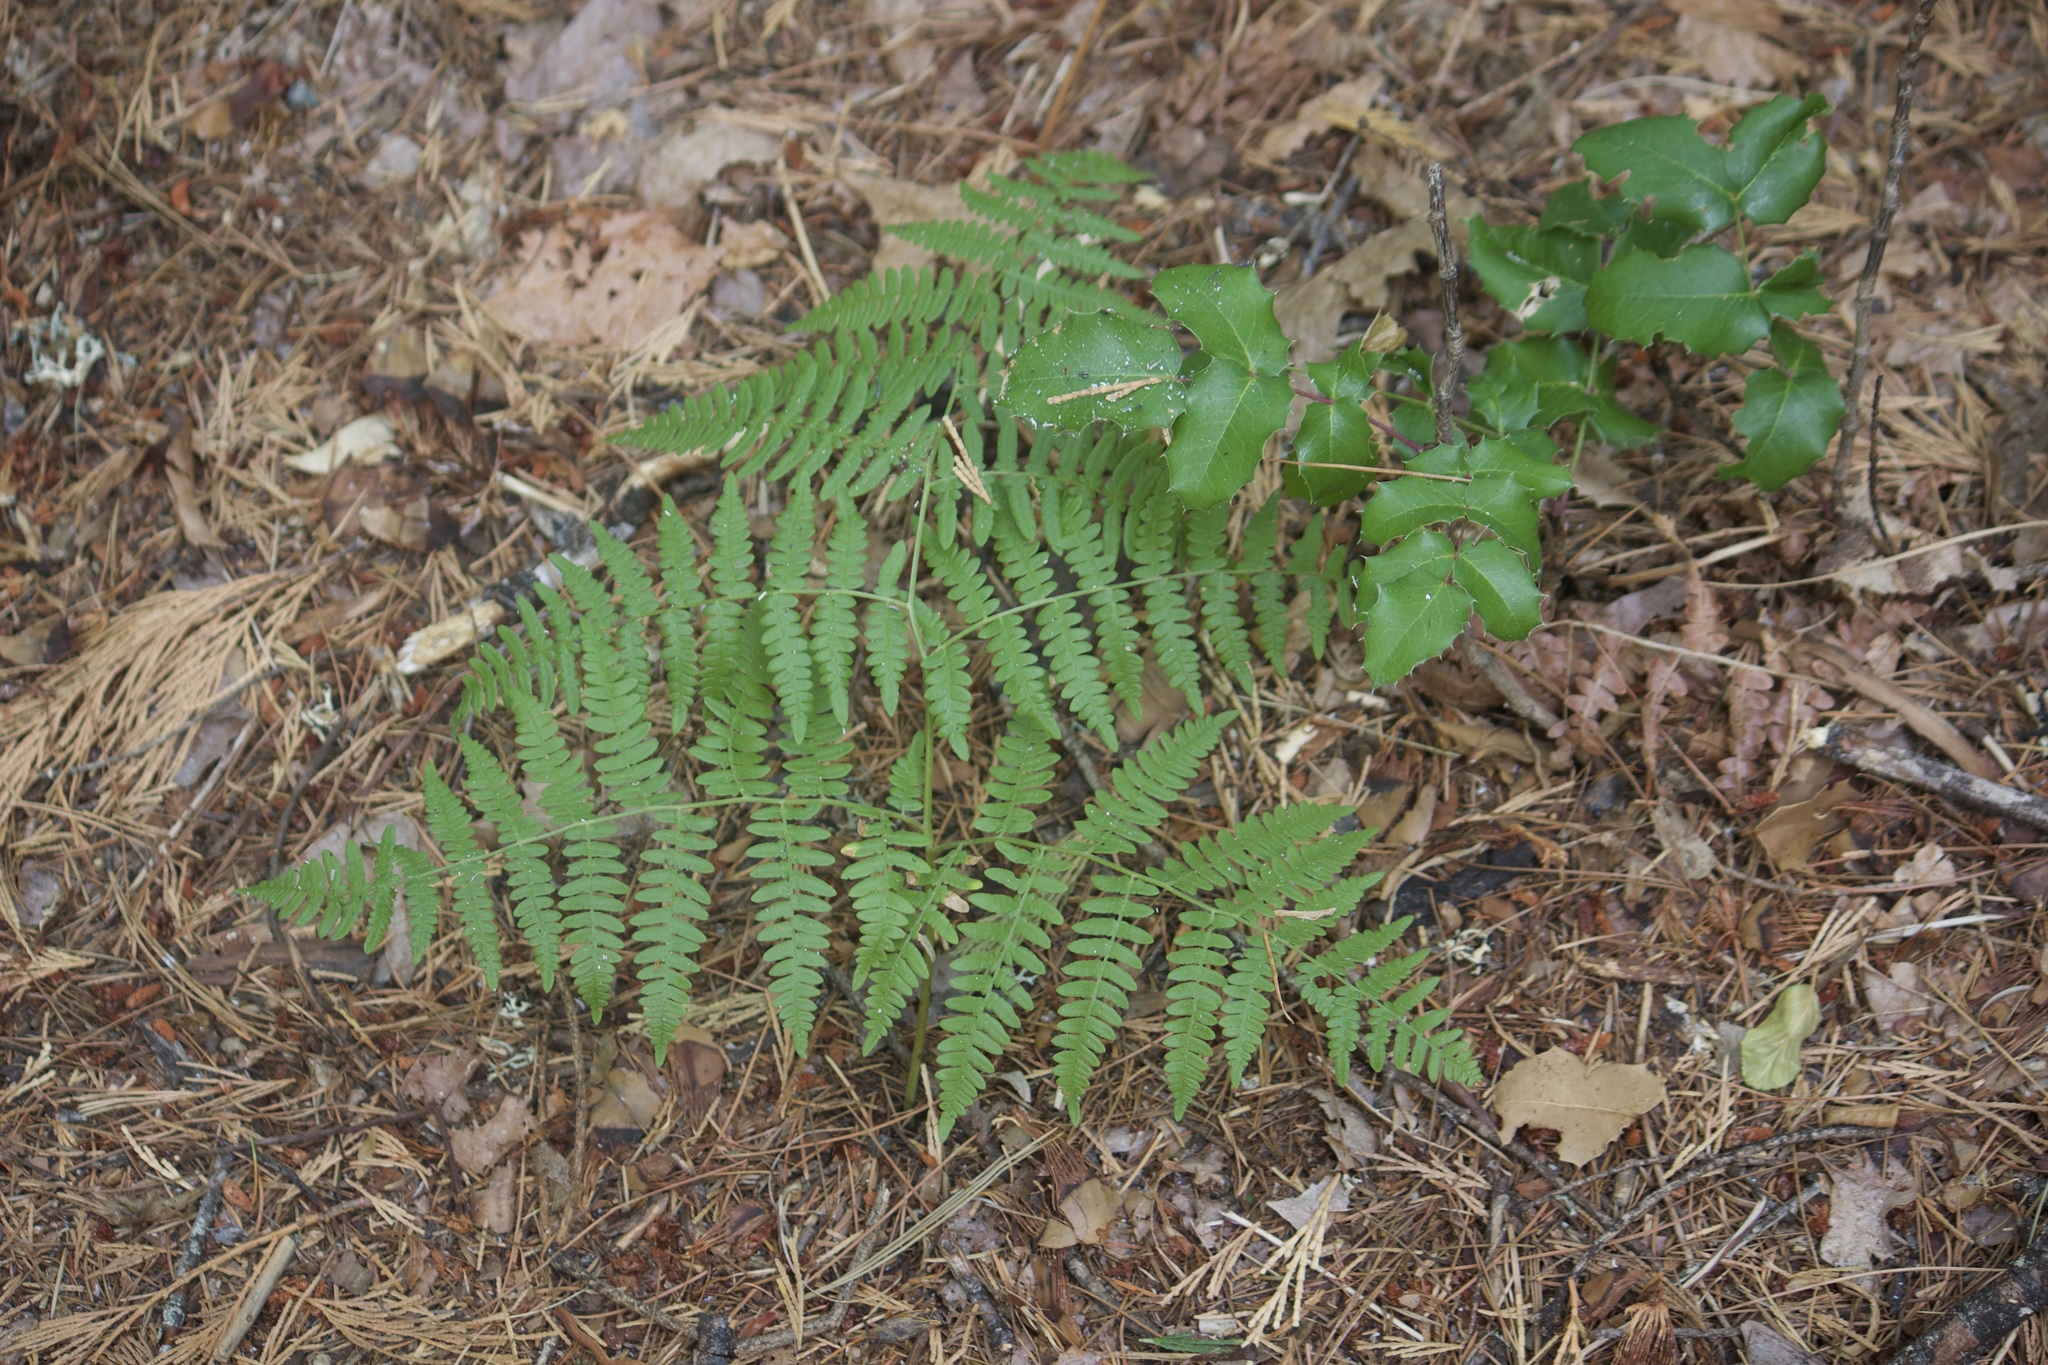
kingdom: Plantae
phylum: Tracheophyta
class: Polypodiopsida
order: Polypodiales
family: Dennstaedtiaceae
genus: Pteridium
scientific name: Pteridium aquilinum
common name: Bracken
